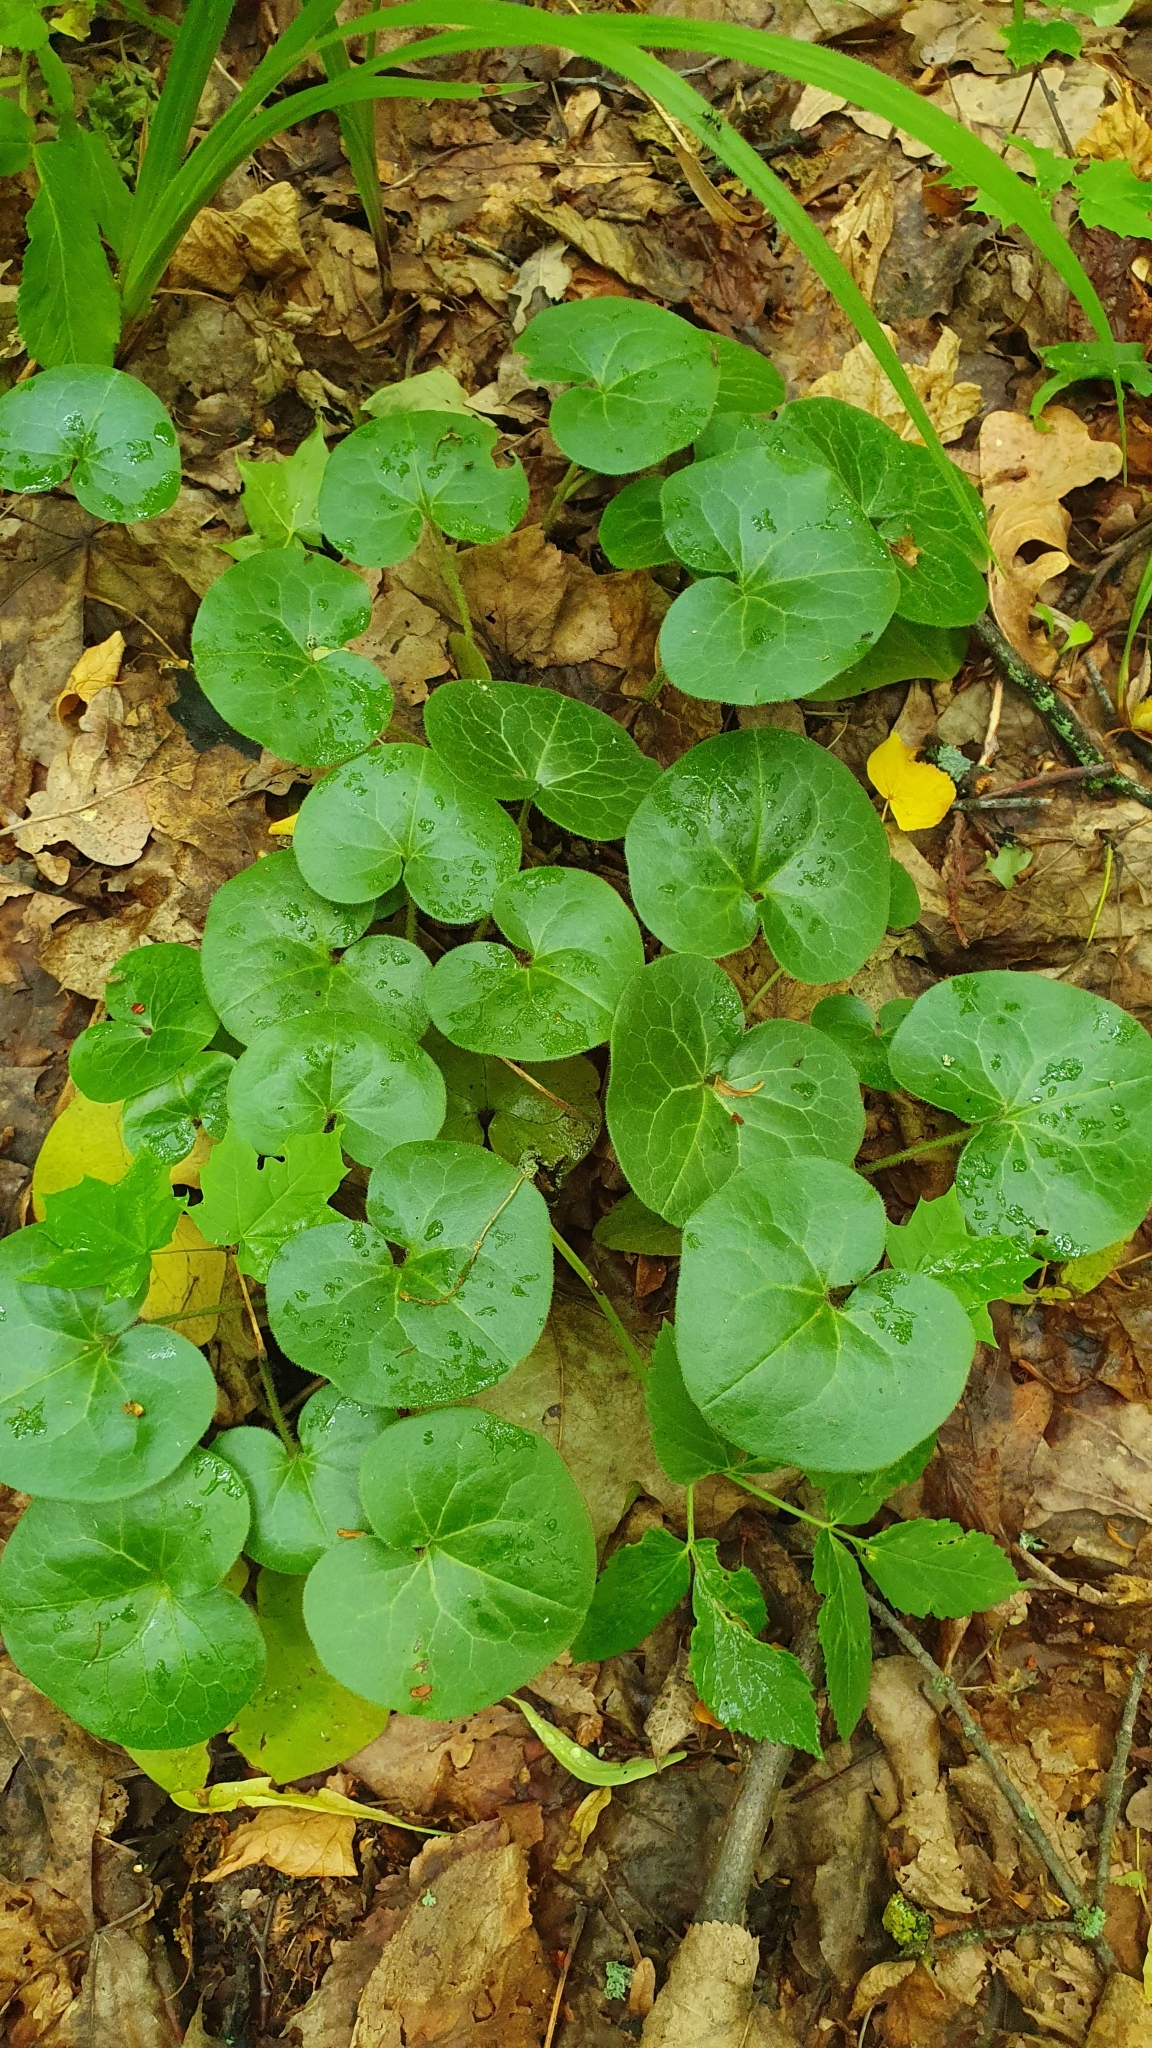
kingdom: Plantae
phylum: Tracheophyta
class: Magnoliopsida
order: Piperales
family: Aristolochiaceae
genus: Asarum
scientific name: Asarum europaeum
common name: Asarabacca
